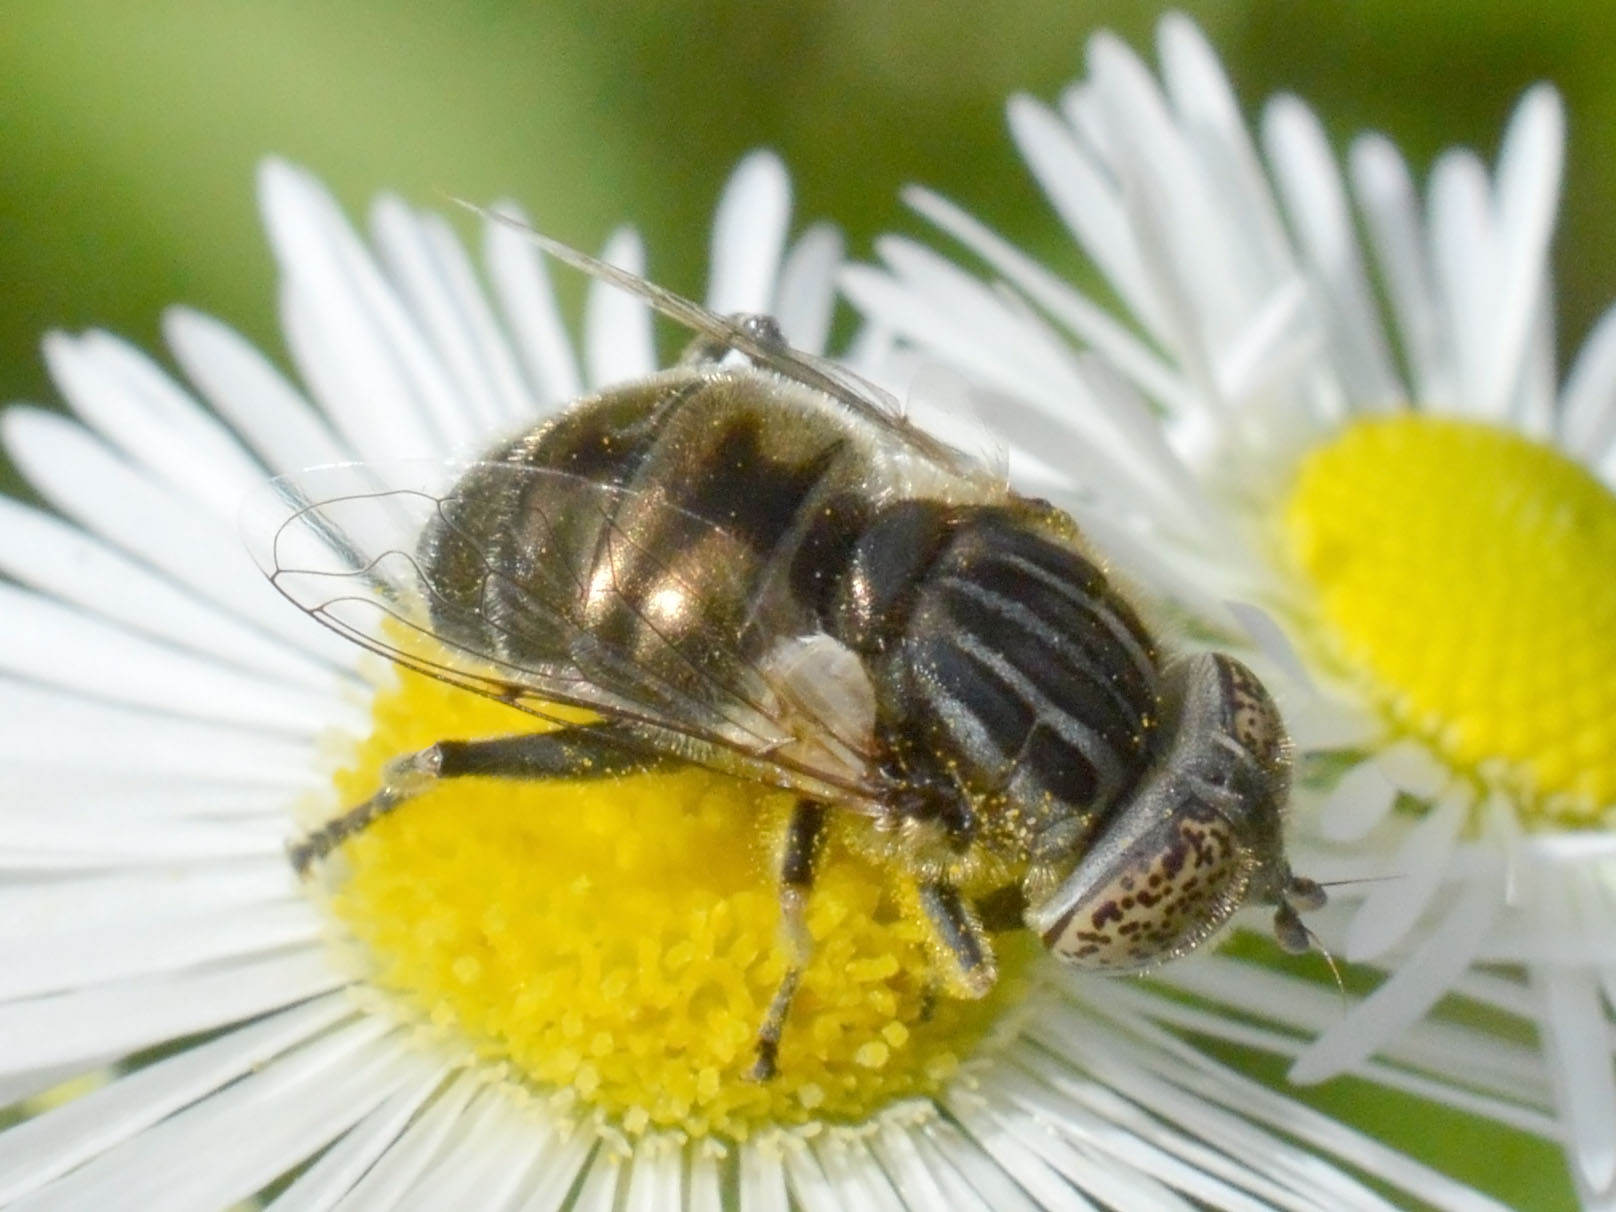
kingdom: Animalia
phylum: Arthropoda
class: Insecta
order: Diptera
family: Syrphidae
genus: Eristalinus
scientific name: Eristalinus sepulchralis
